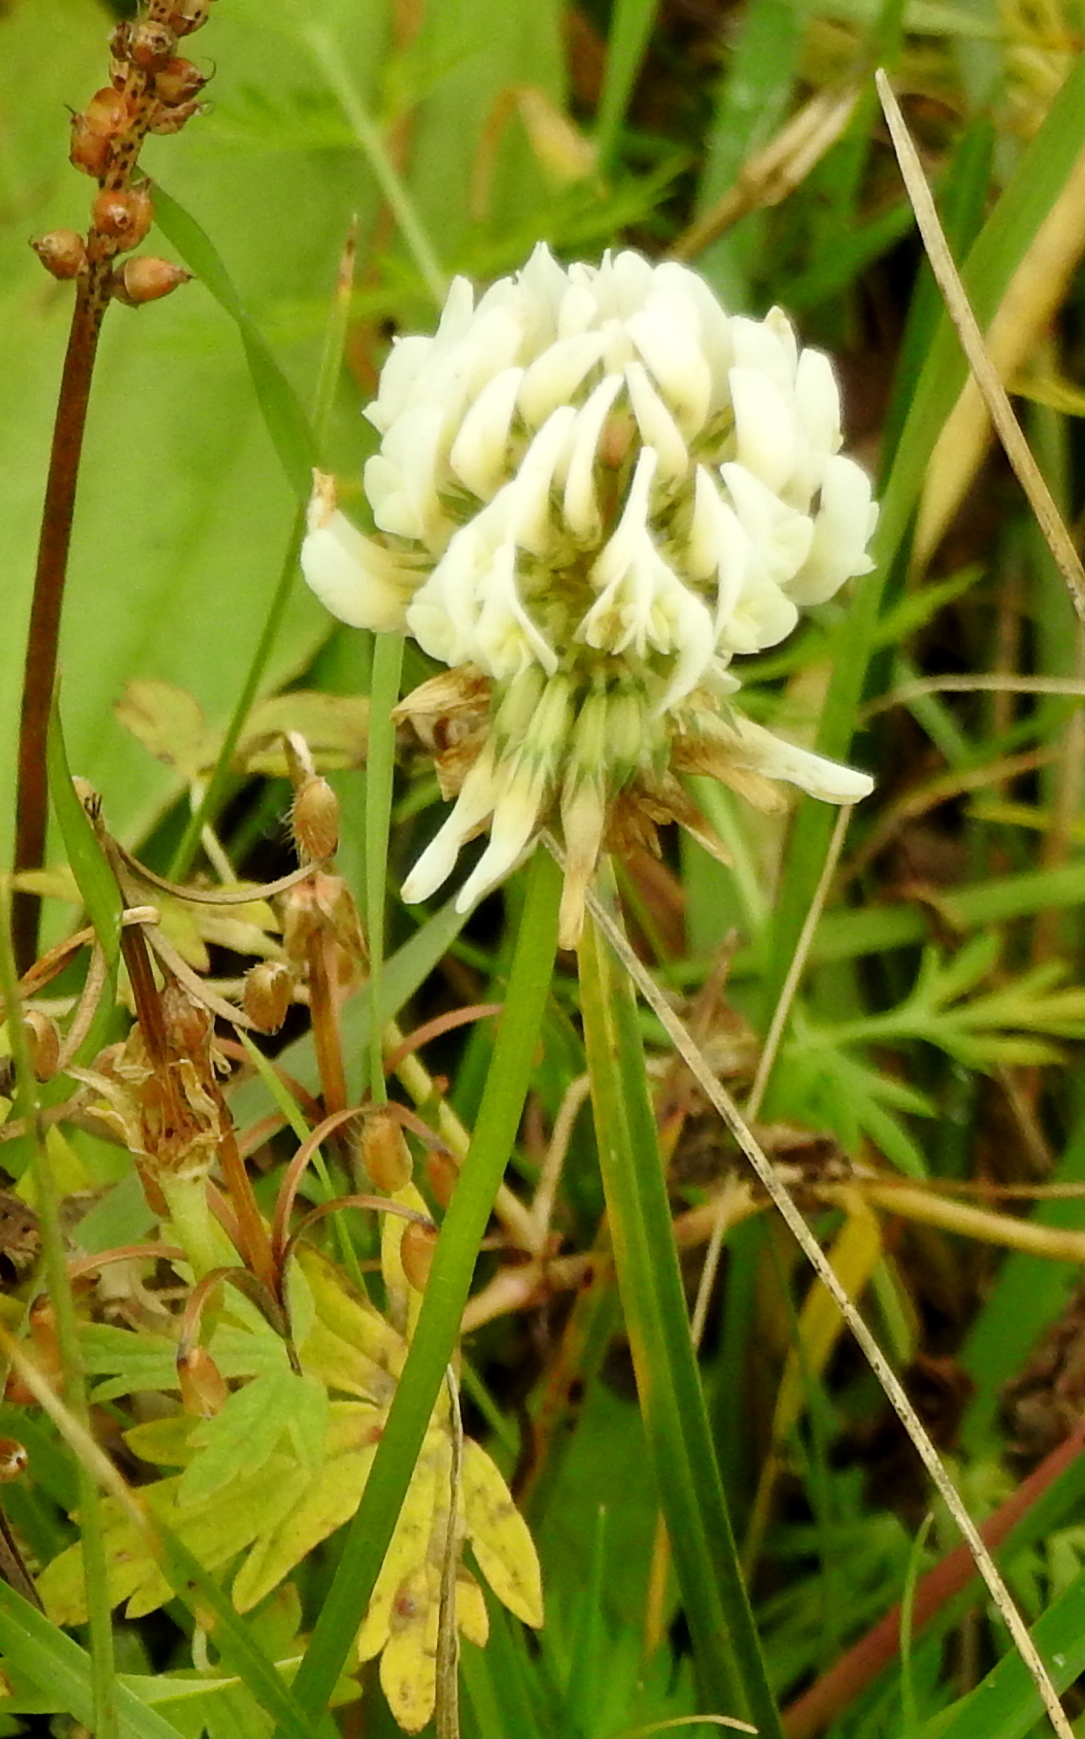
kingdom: Plantae
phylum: Tracheophyta
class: Magnoliopsida
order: Fabales
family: Fabaceae
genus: Trifolium
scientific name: Trifolium repens
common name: White clover
